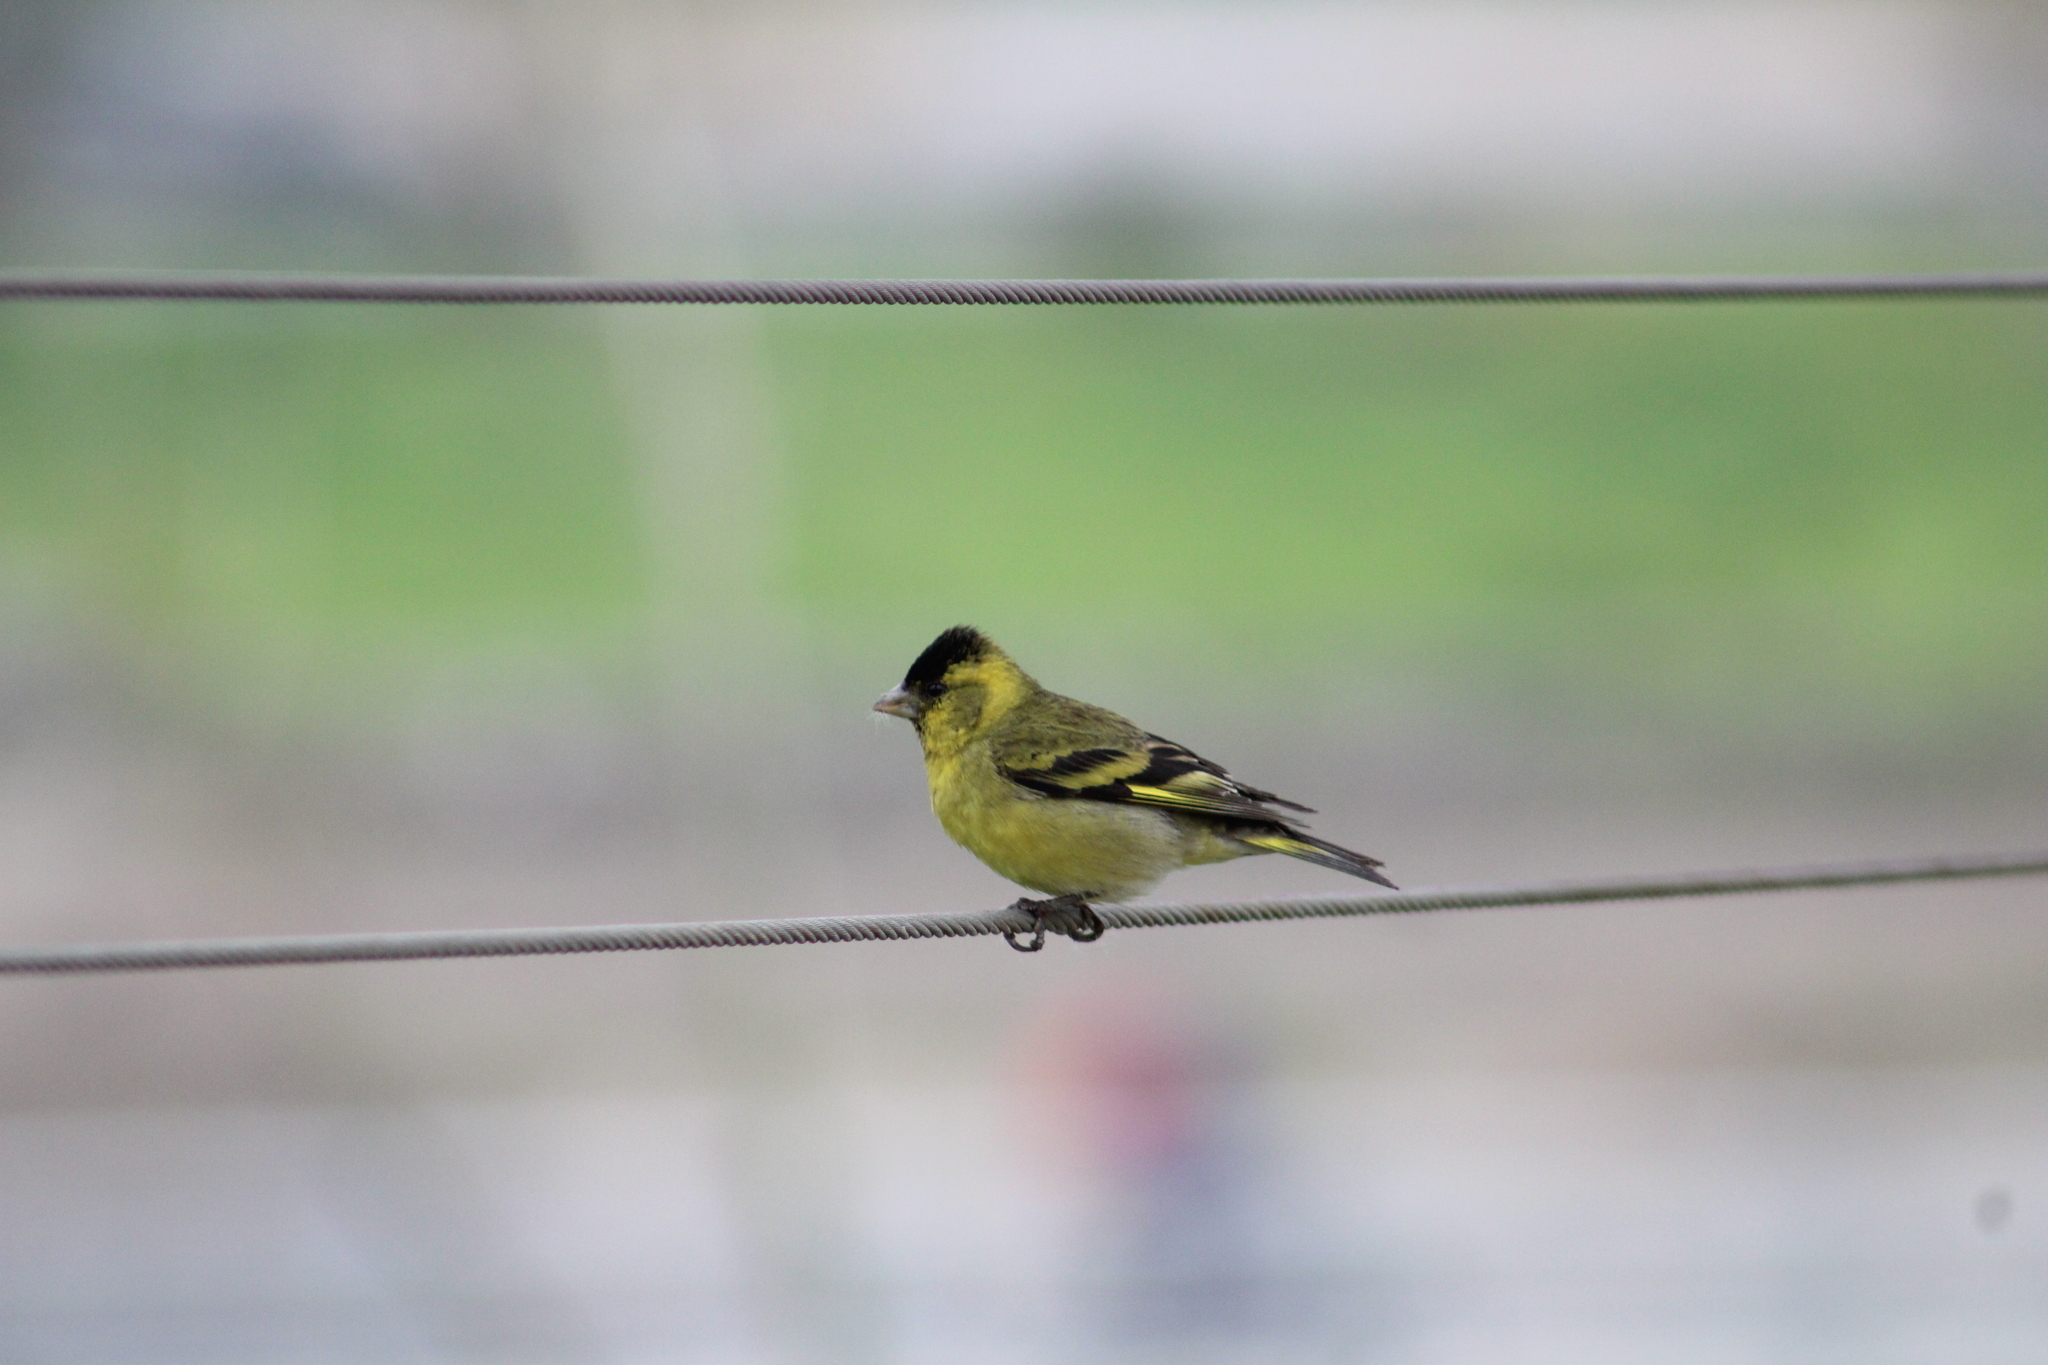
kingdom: Animalia
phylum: Chordata
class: Aves
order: Passeriformes
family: Fringillidae
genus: Spinus
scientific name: Spinus barbatus
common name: Black-chinned siskin
